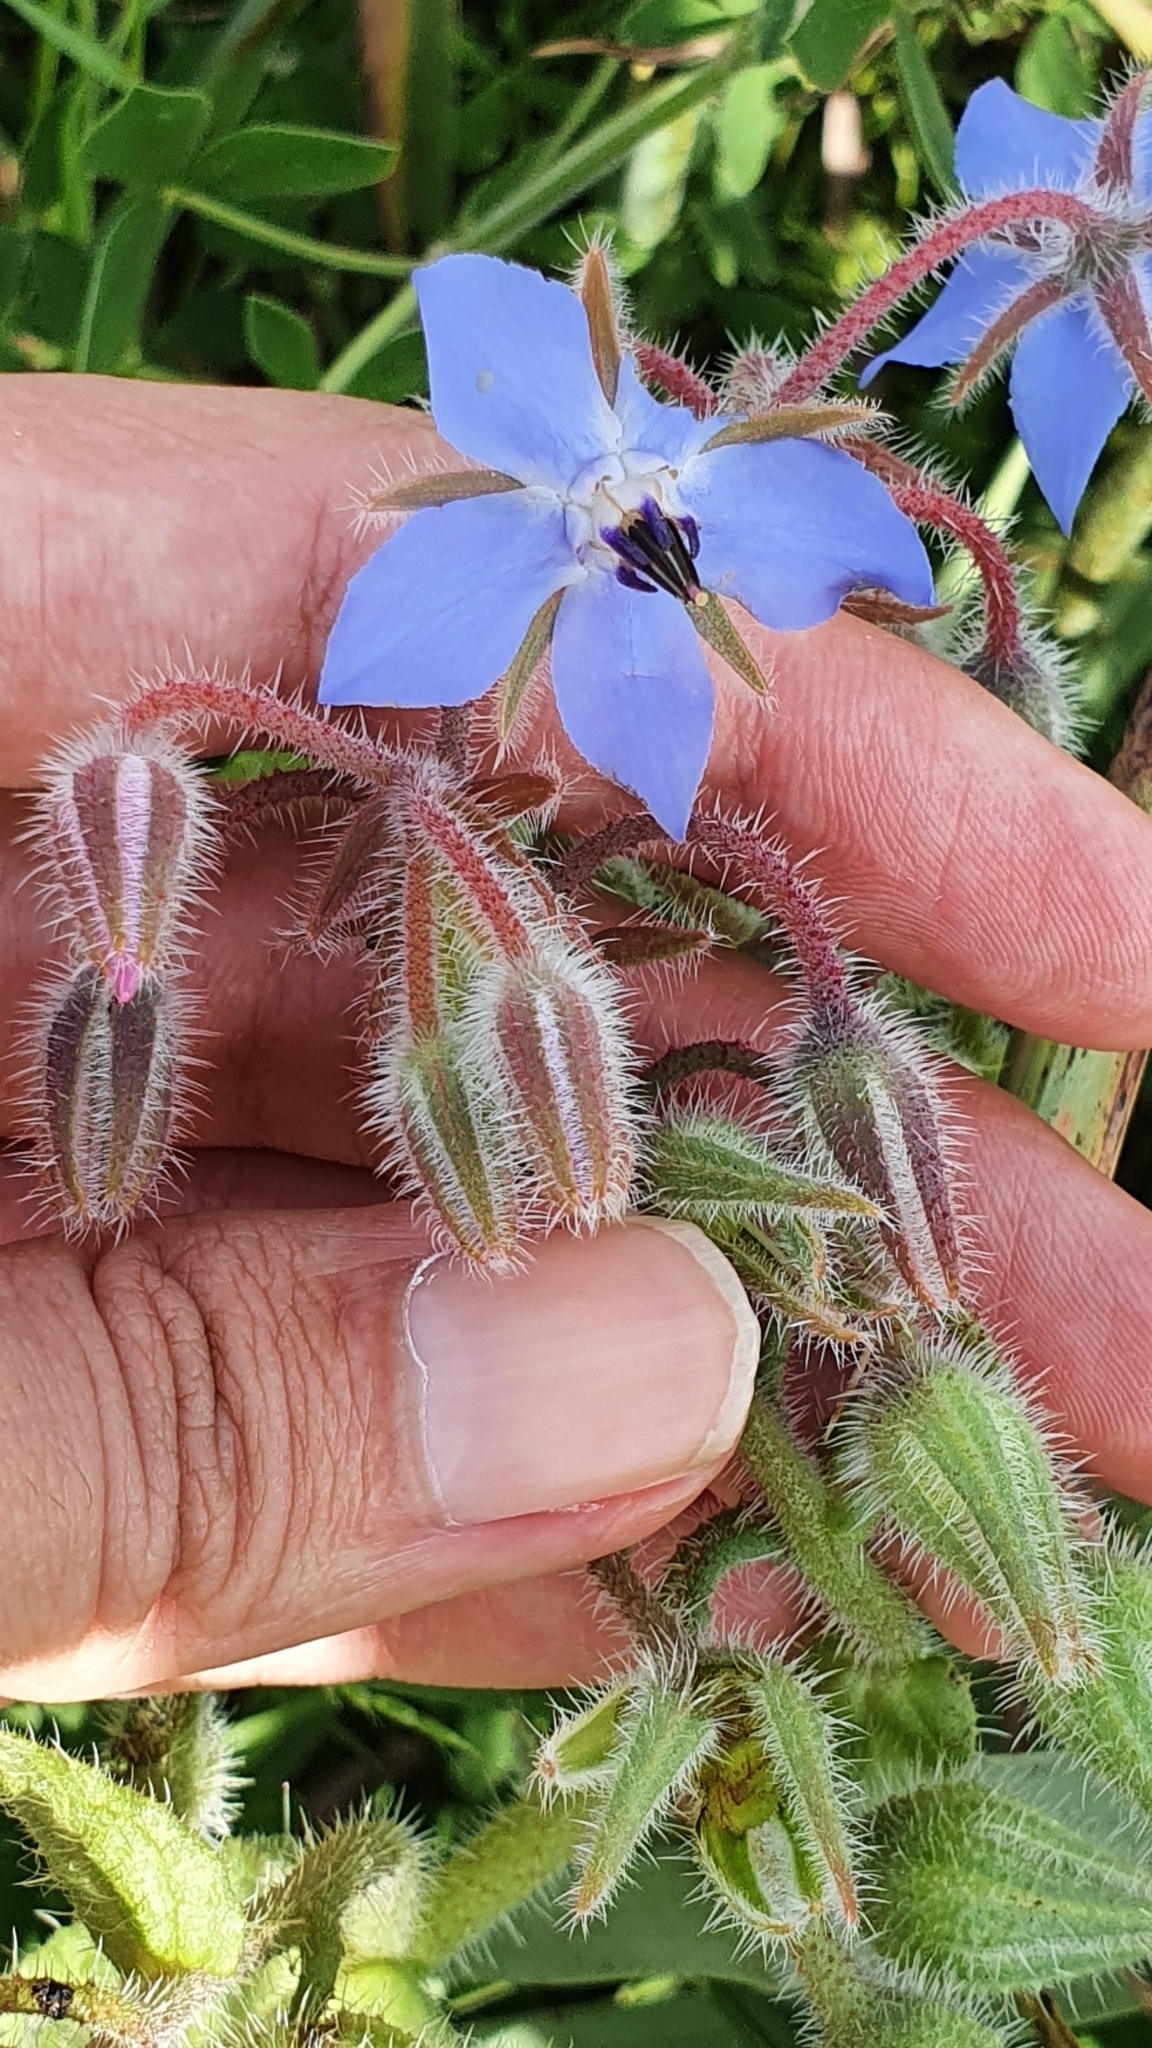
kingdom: Plantae
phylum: Tracheophyta
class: Magnoliopsida
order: Boraginales
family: Boraginaceae
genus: Borago
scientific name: Borago officinalis
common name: Borage
